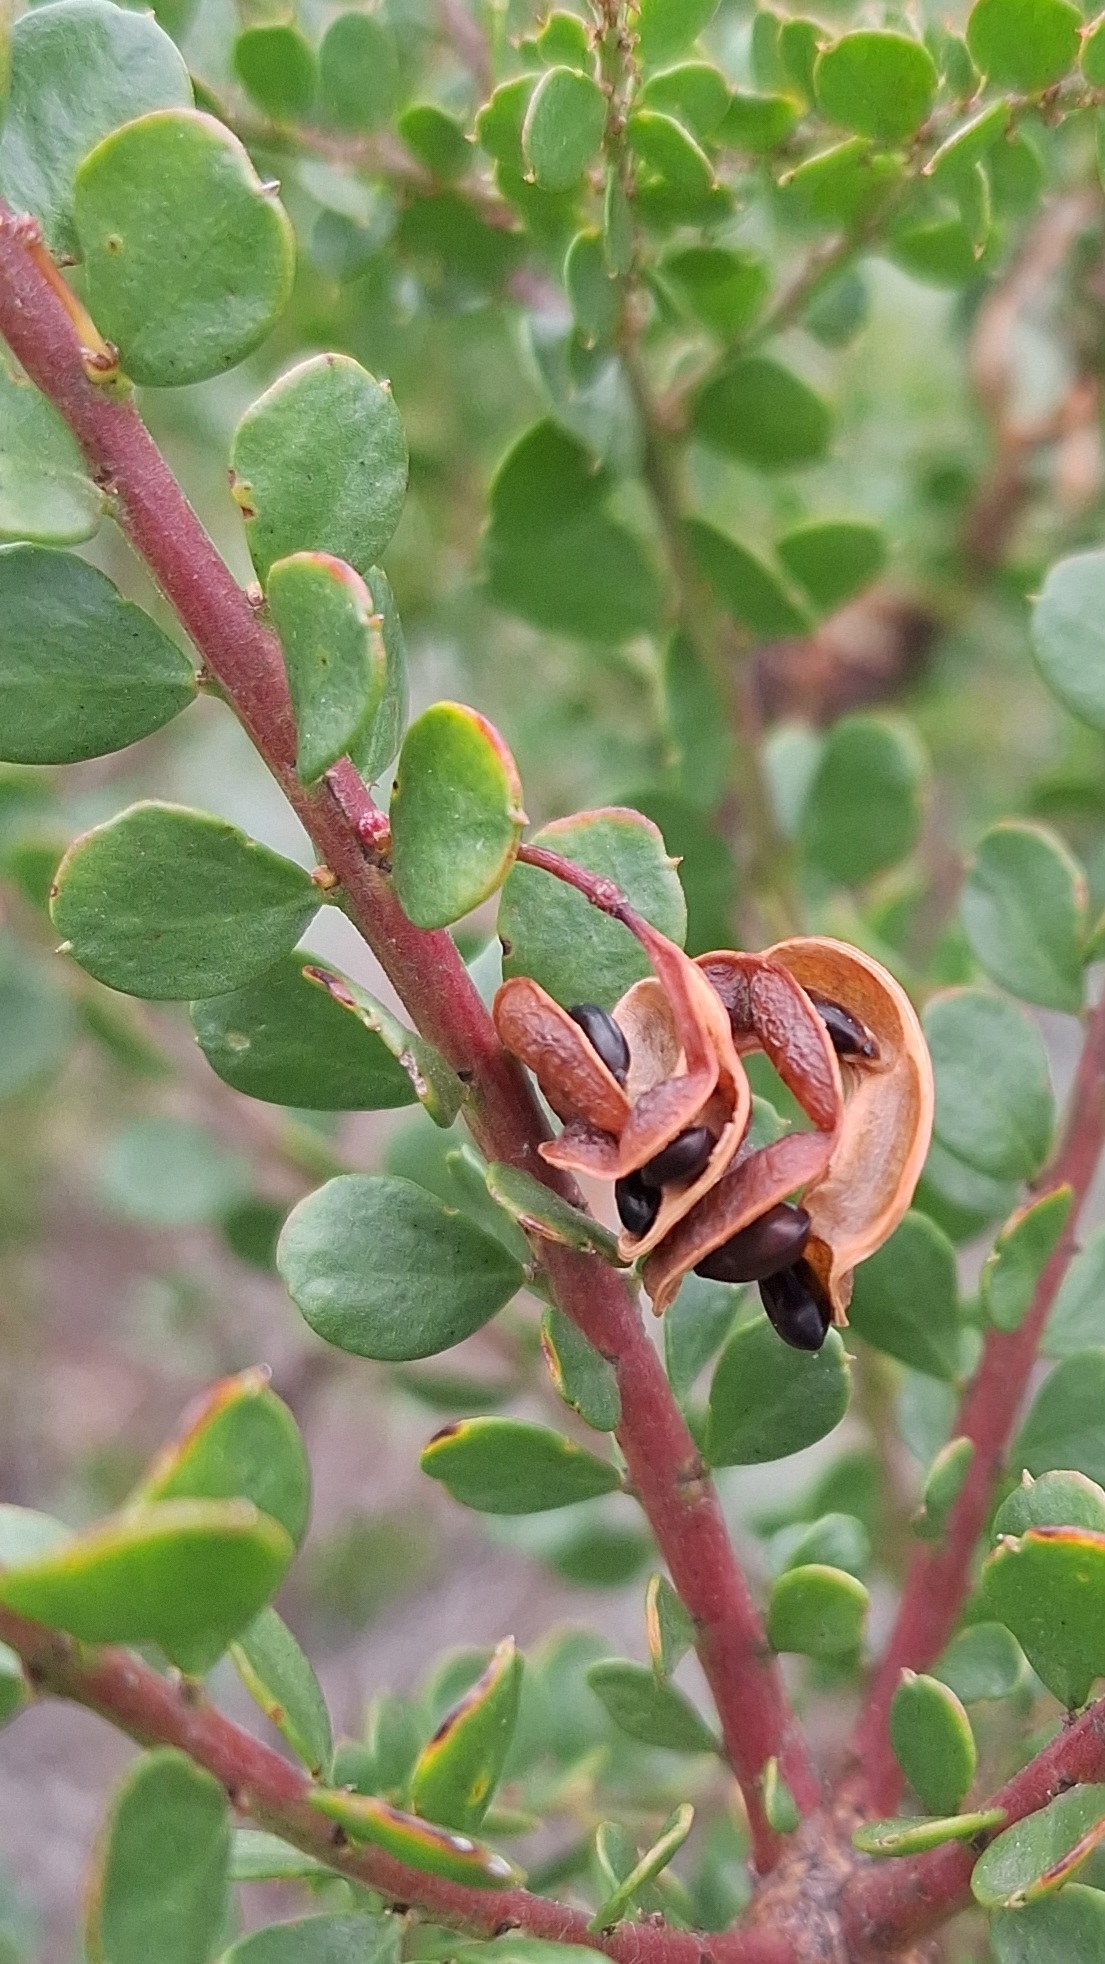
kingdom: Plantae
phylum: Tracheophyta
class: Magnoliopsida
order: Fabales
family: Fabaceae
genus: Acacia
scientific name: Acacia acinacea
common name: Gold-dust acacia
